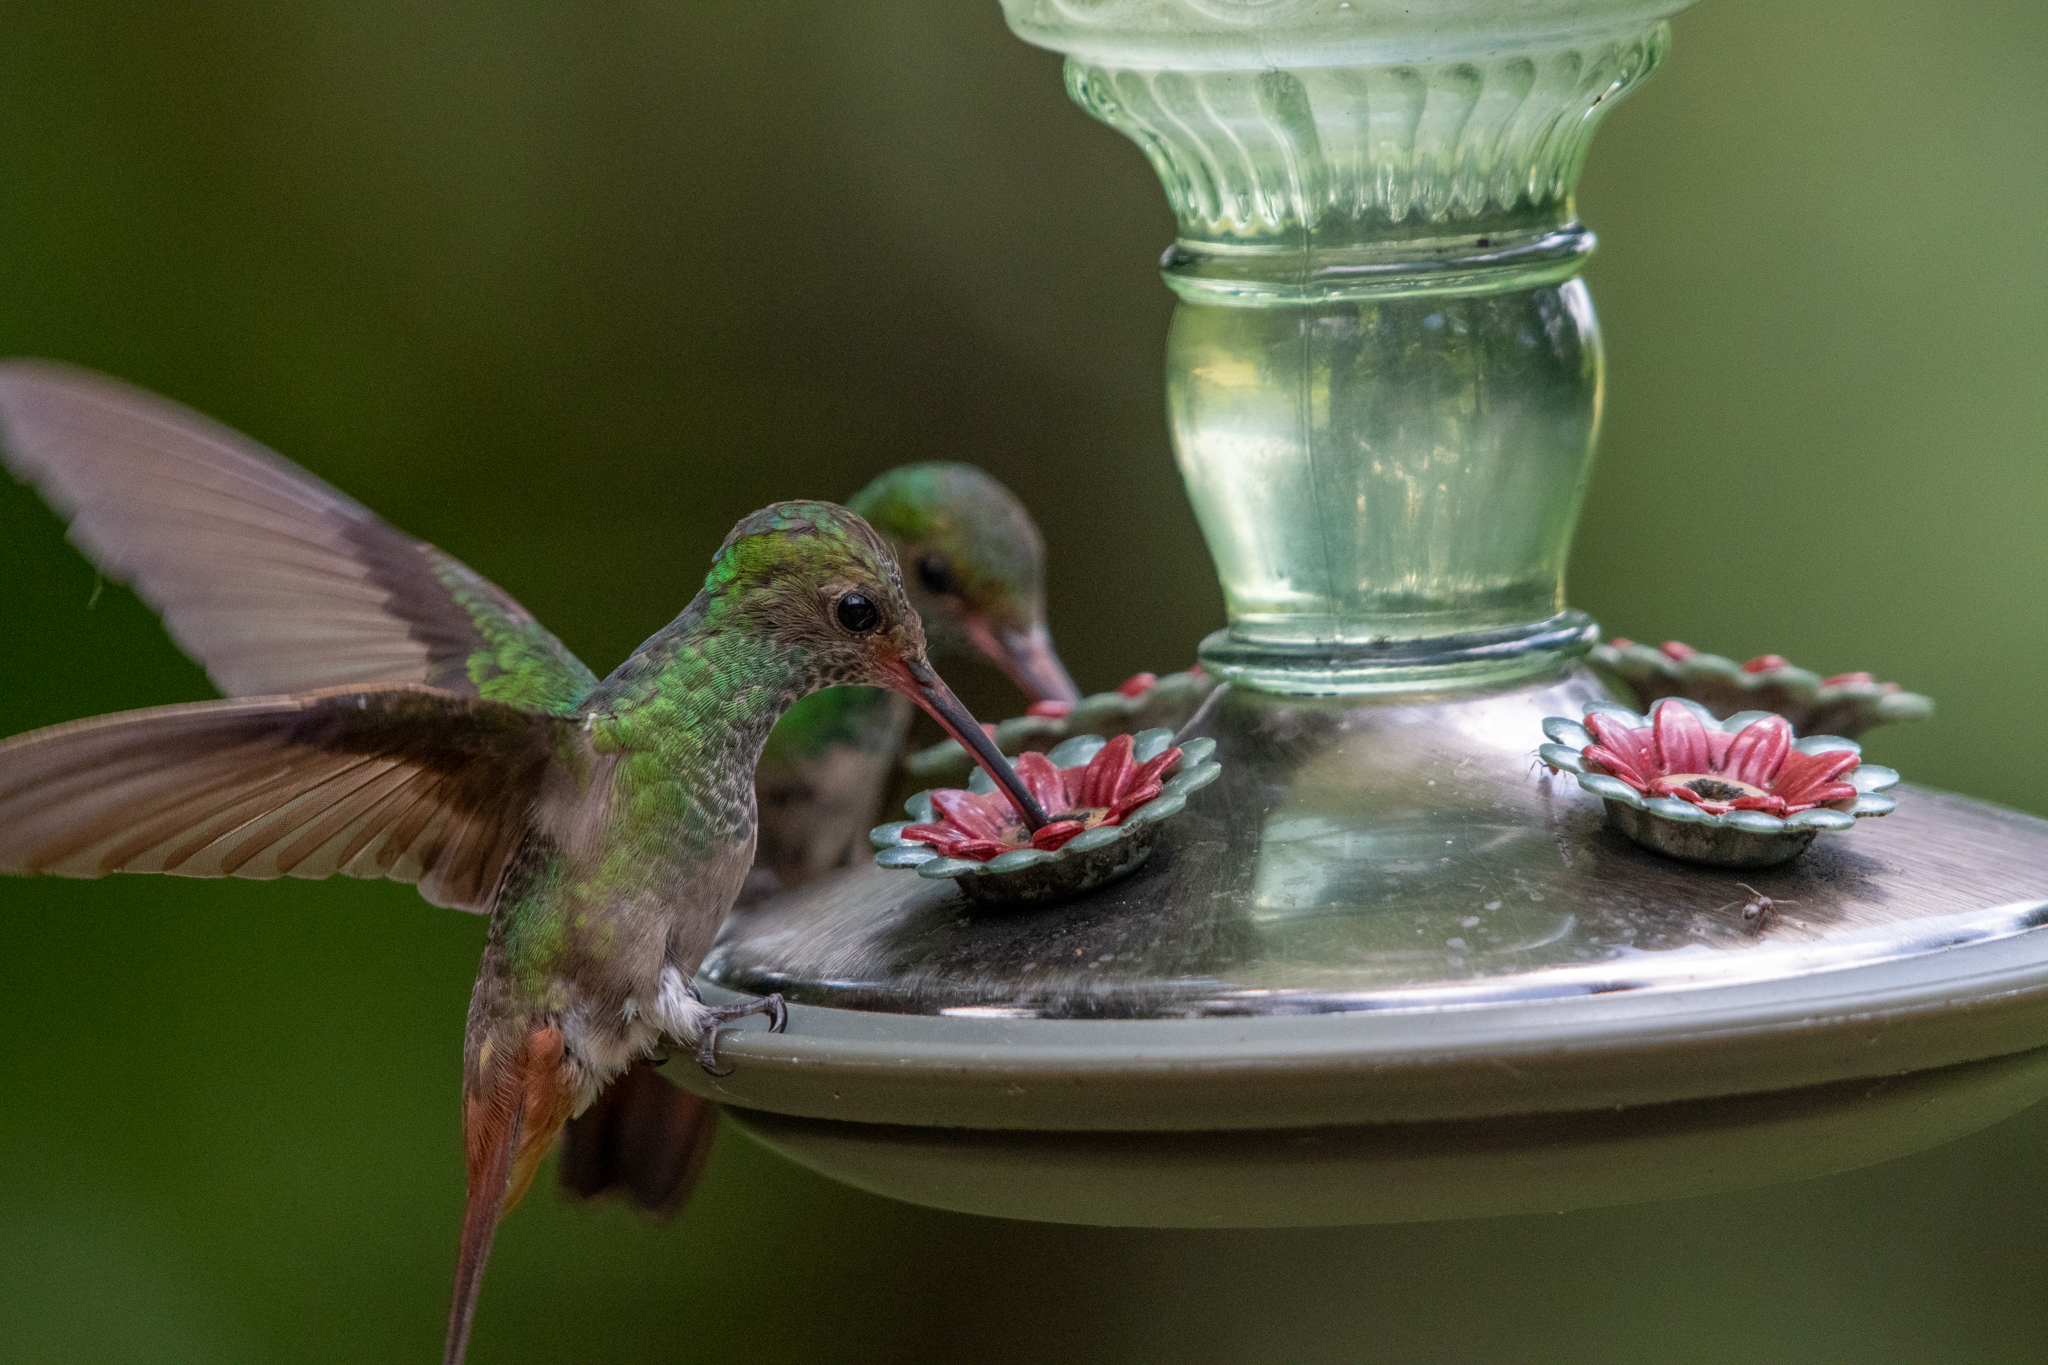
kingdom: Animalia
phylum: Chordata
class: Aves
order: Apodiformes
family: Trochilidae
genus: Amazilia
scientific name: Amazilia tzacatl
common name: Rufous-tailed hummingbird
